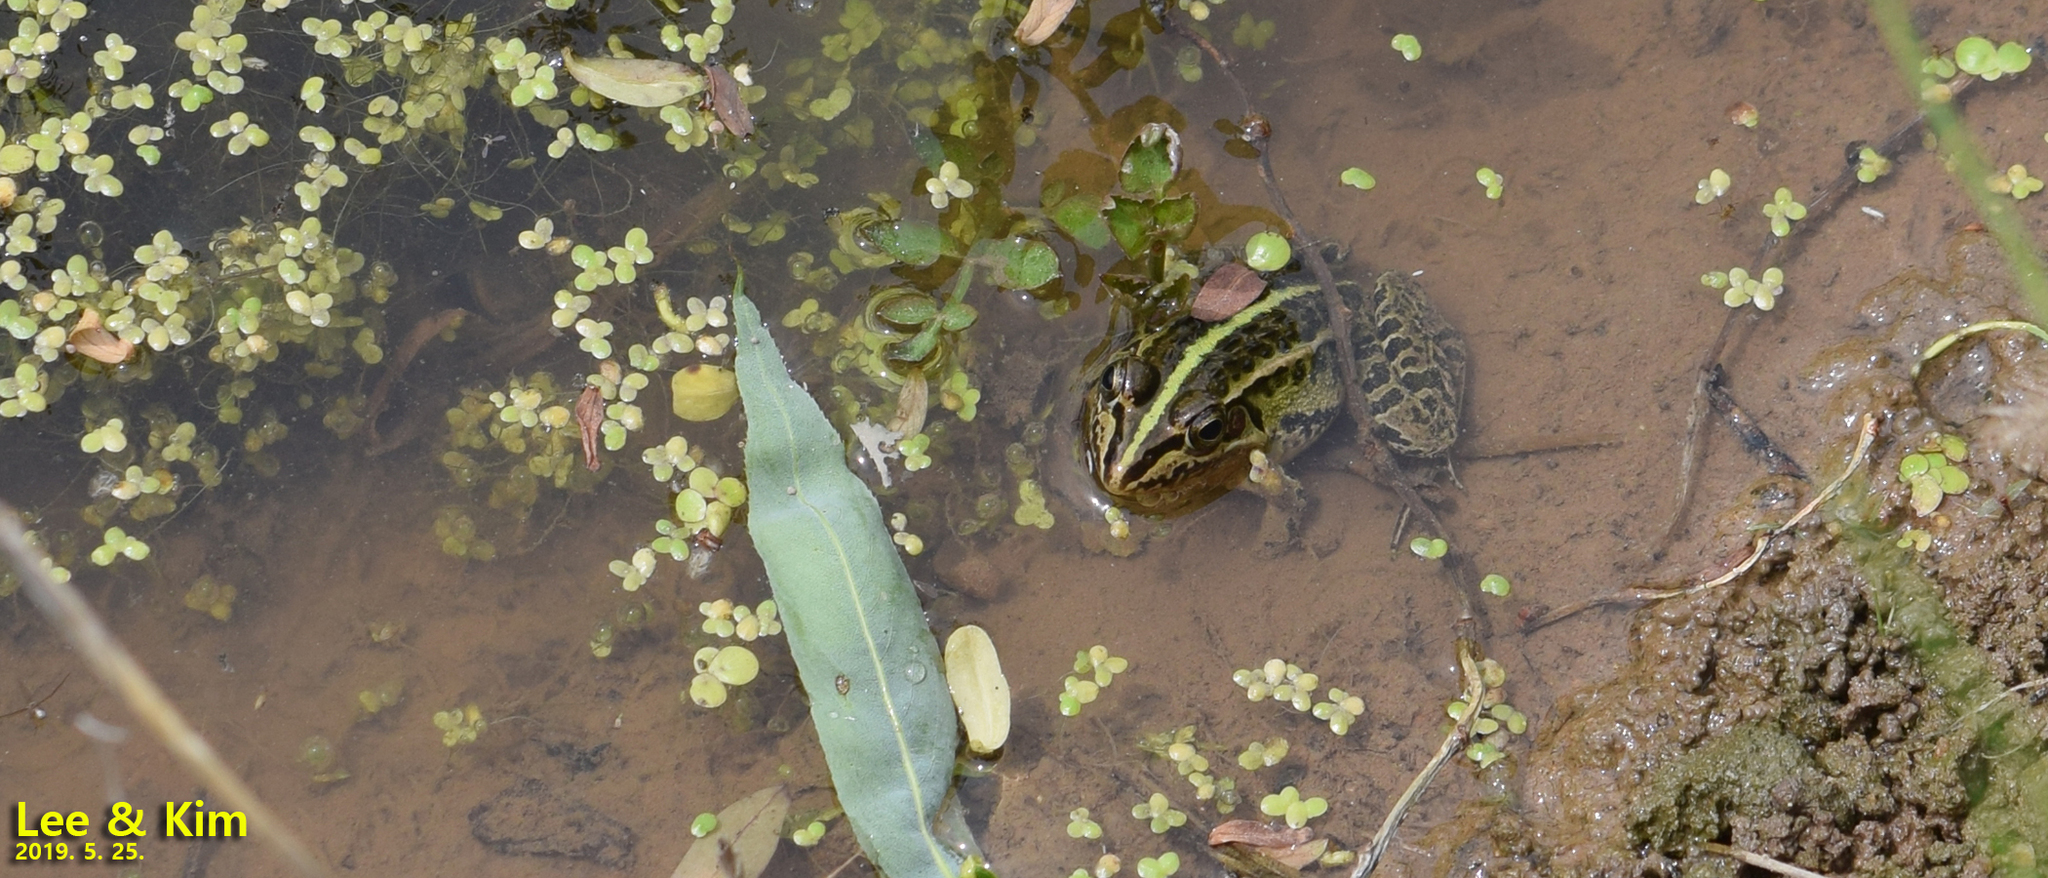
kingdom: Animalia
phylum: Chordata
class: Amphibia
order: Anura
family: Ranidae
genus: Pelophylax
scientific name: Pelophylax nigromaculatus
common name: Black-spotted pond frog
